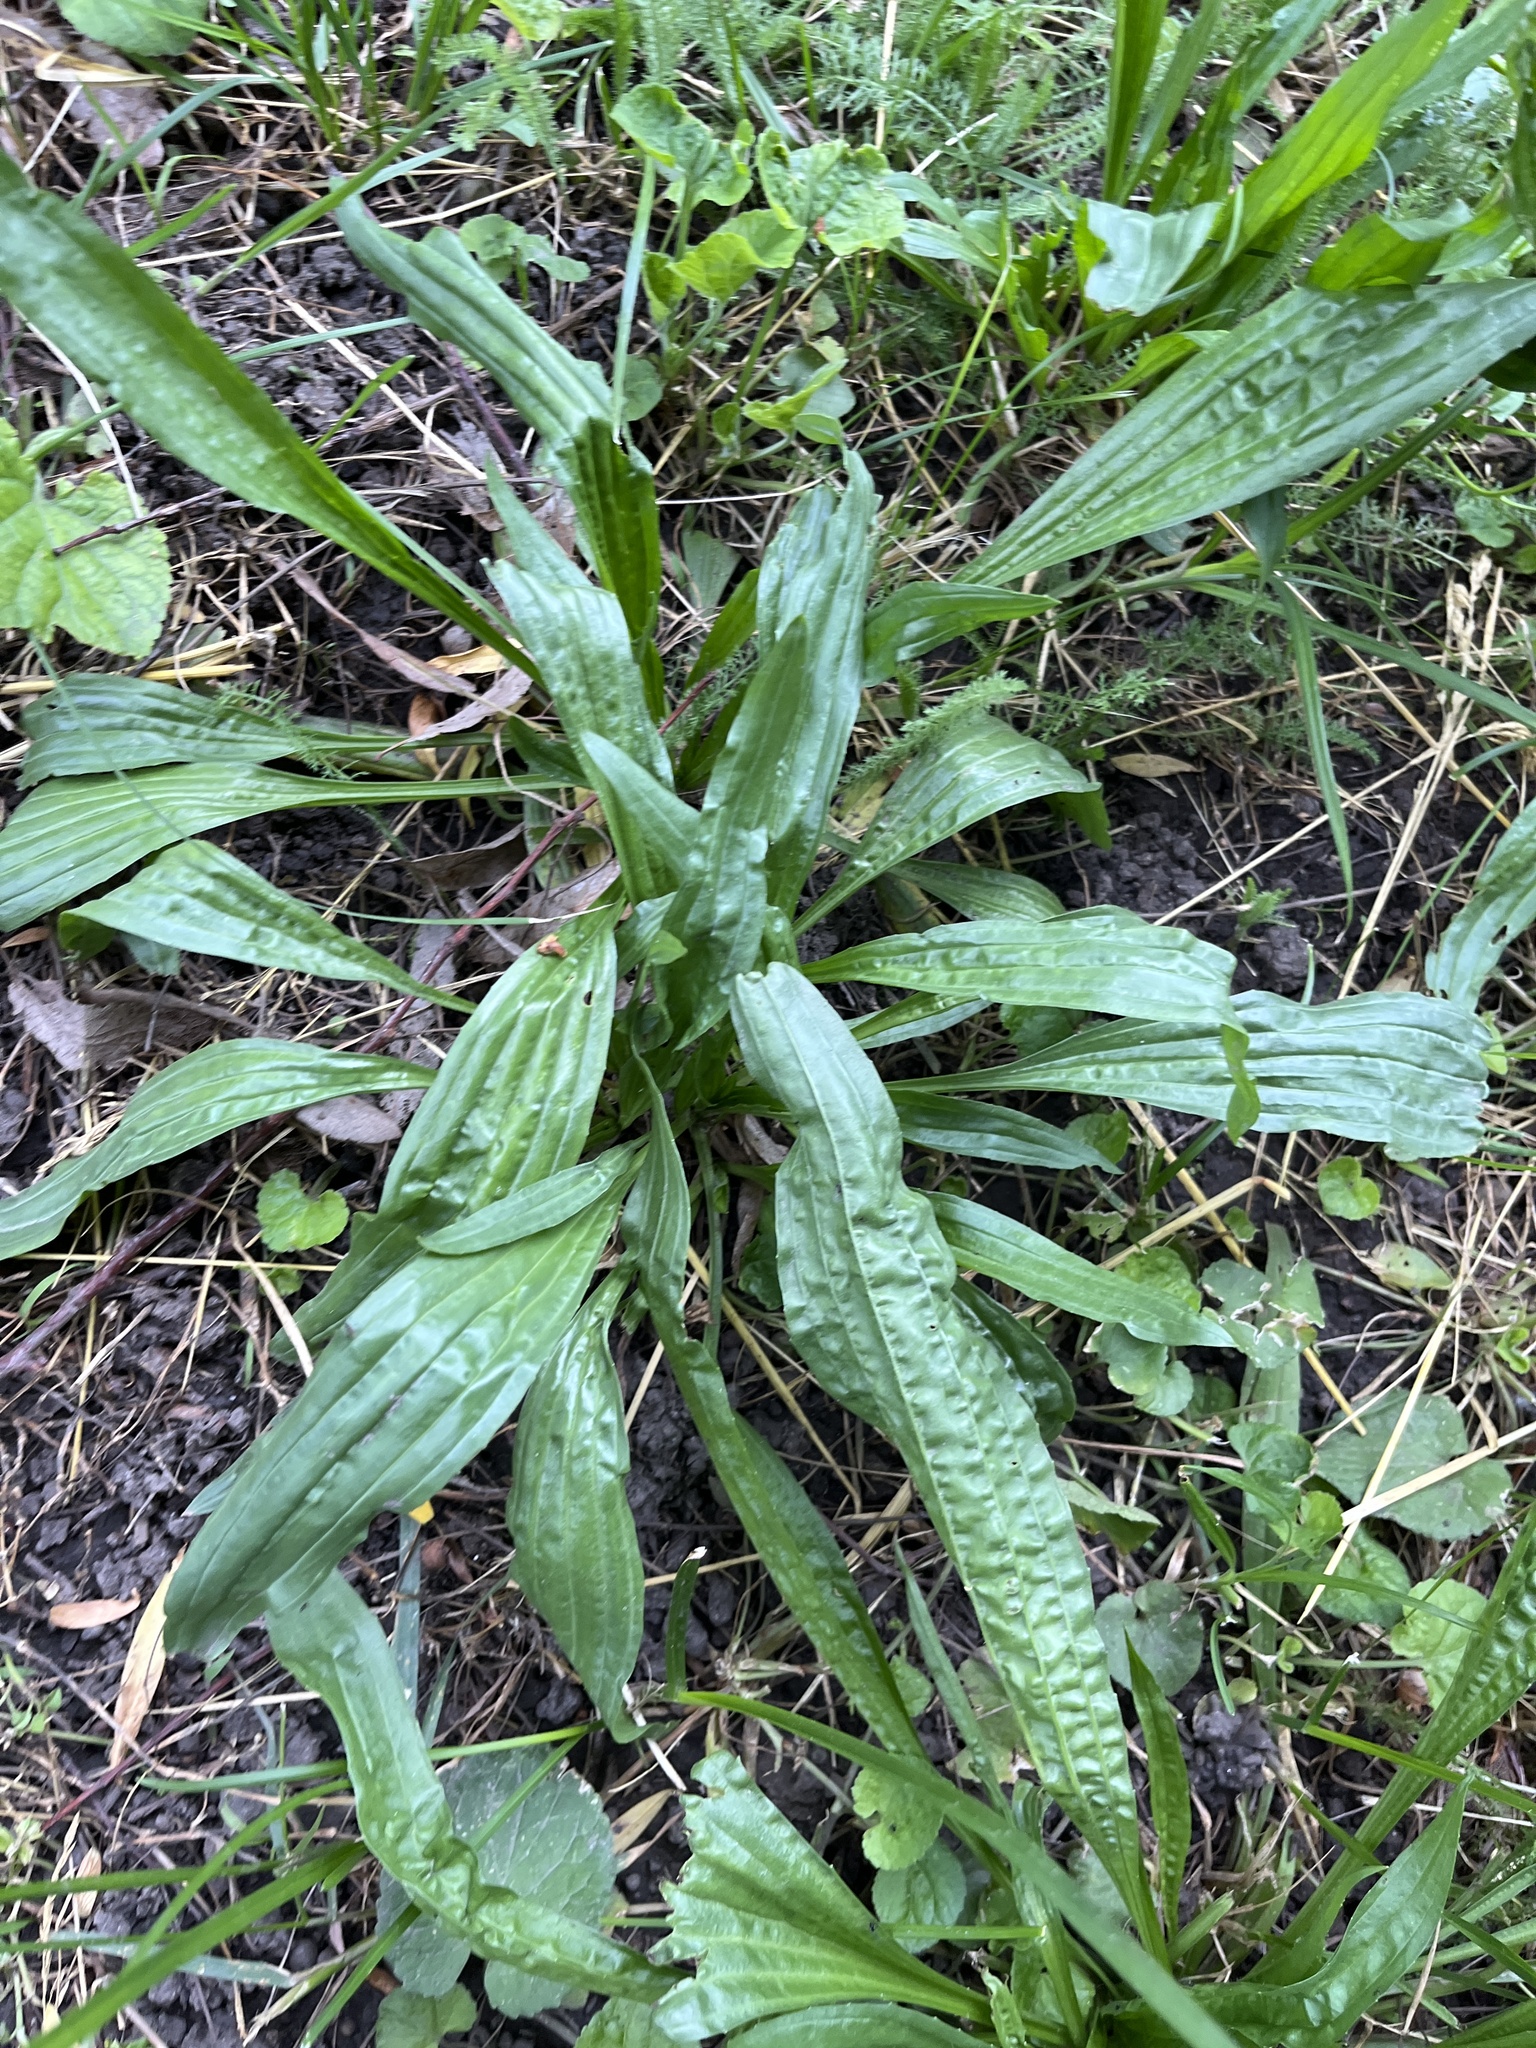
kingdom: Plantae
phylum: Tracheophyta
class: Magnoliopsida
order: Lamiales
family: Plantaginaceae
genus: Plantago
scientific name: Plantago lanceolata
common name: Ribwort plantain
